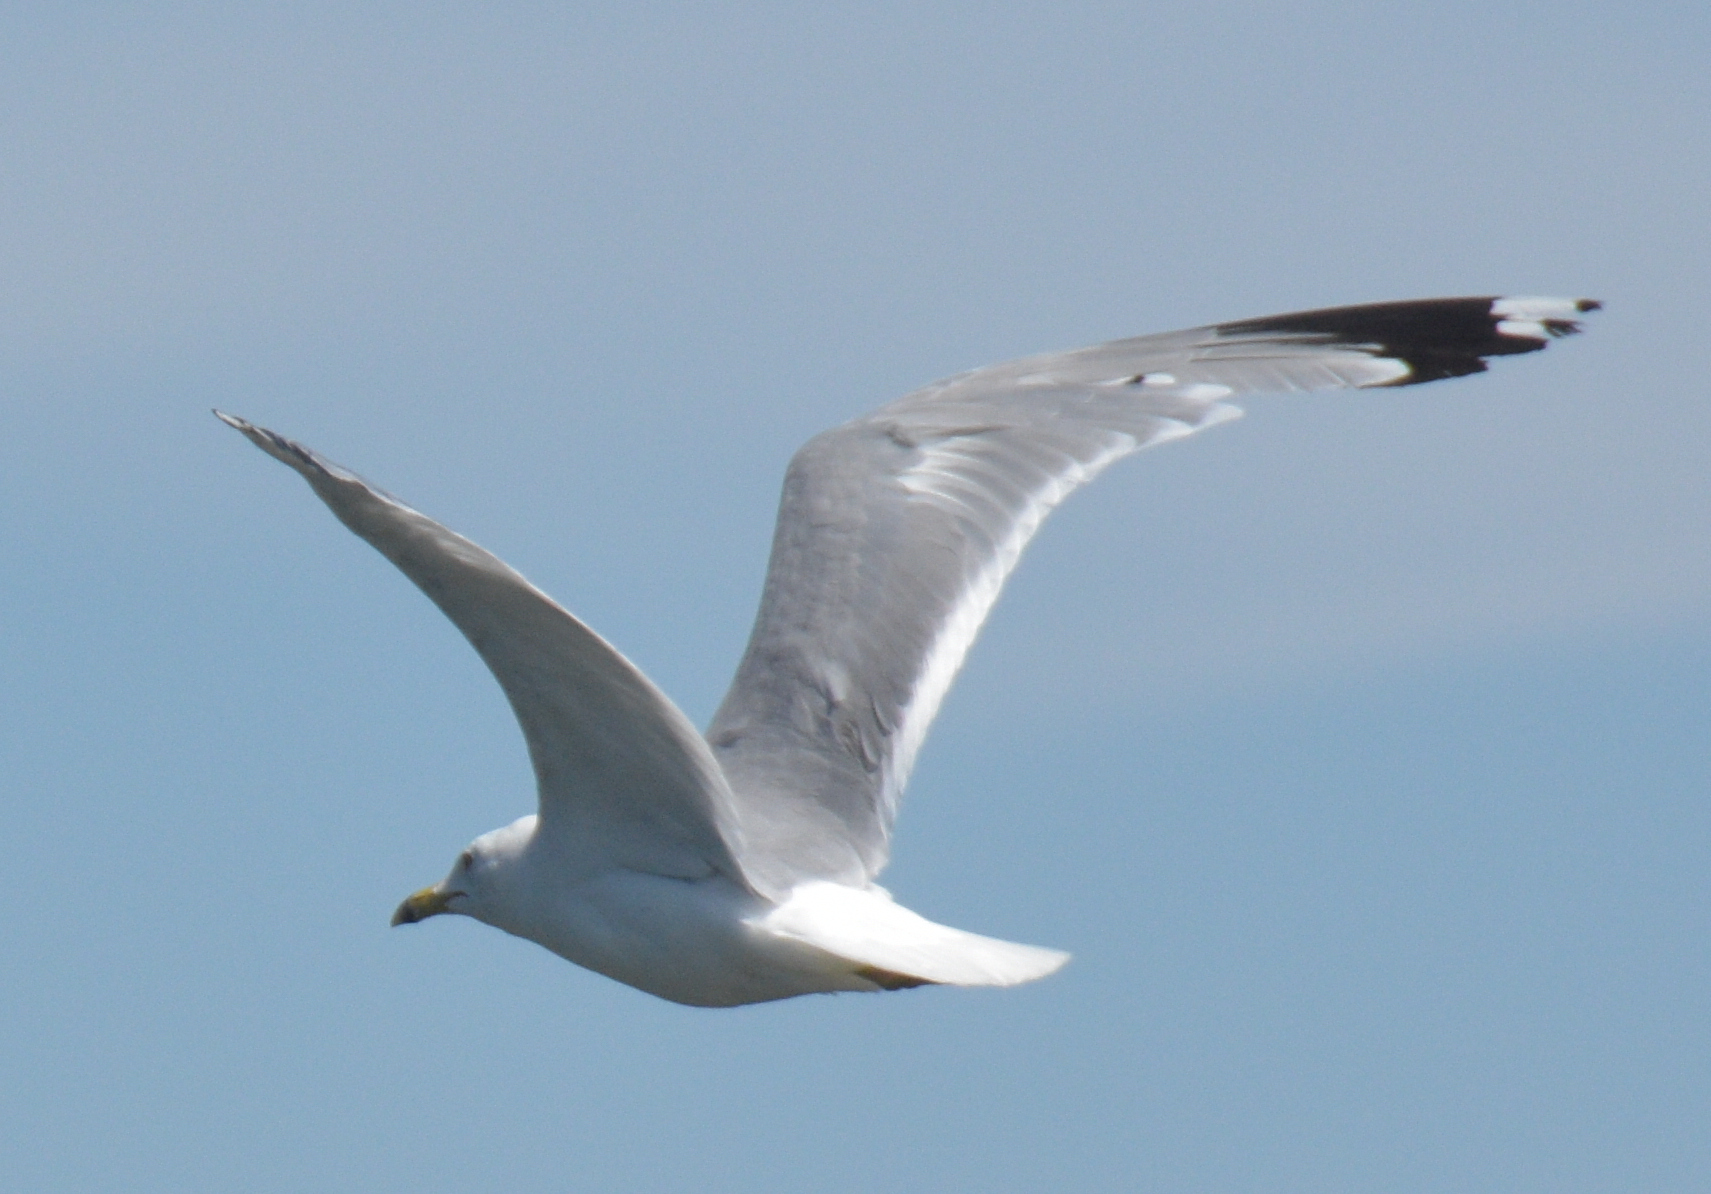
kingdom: Animalia
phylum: Chordata
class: Aves
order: Charadriiformes
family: Laridae
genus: Larus
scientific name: Larus delawarensis
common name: Ring-billed gull
